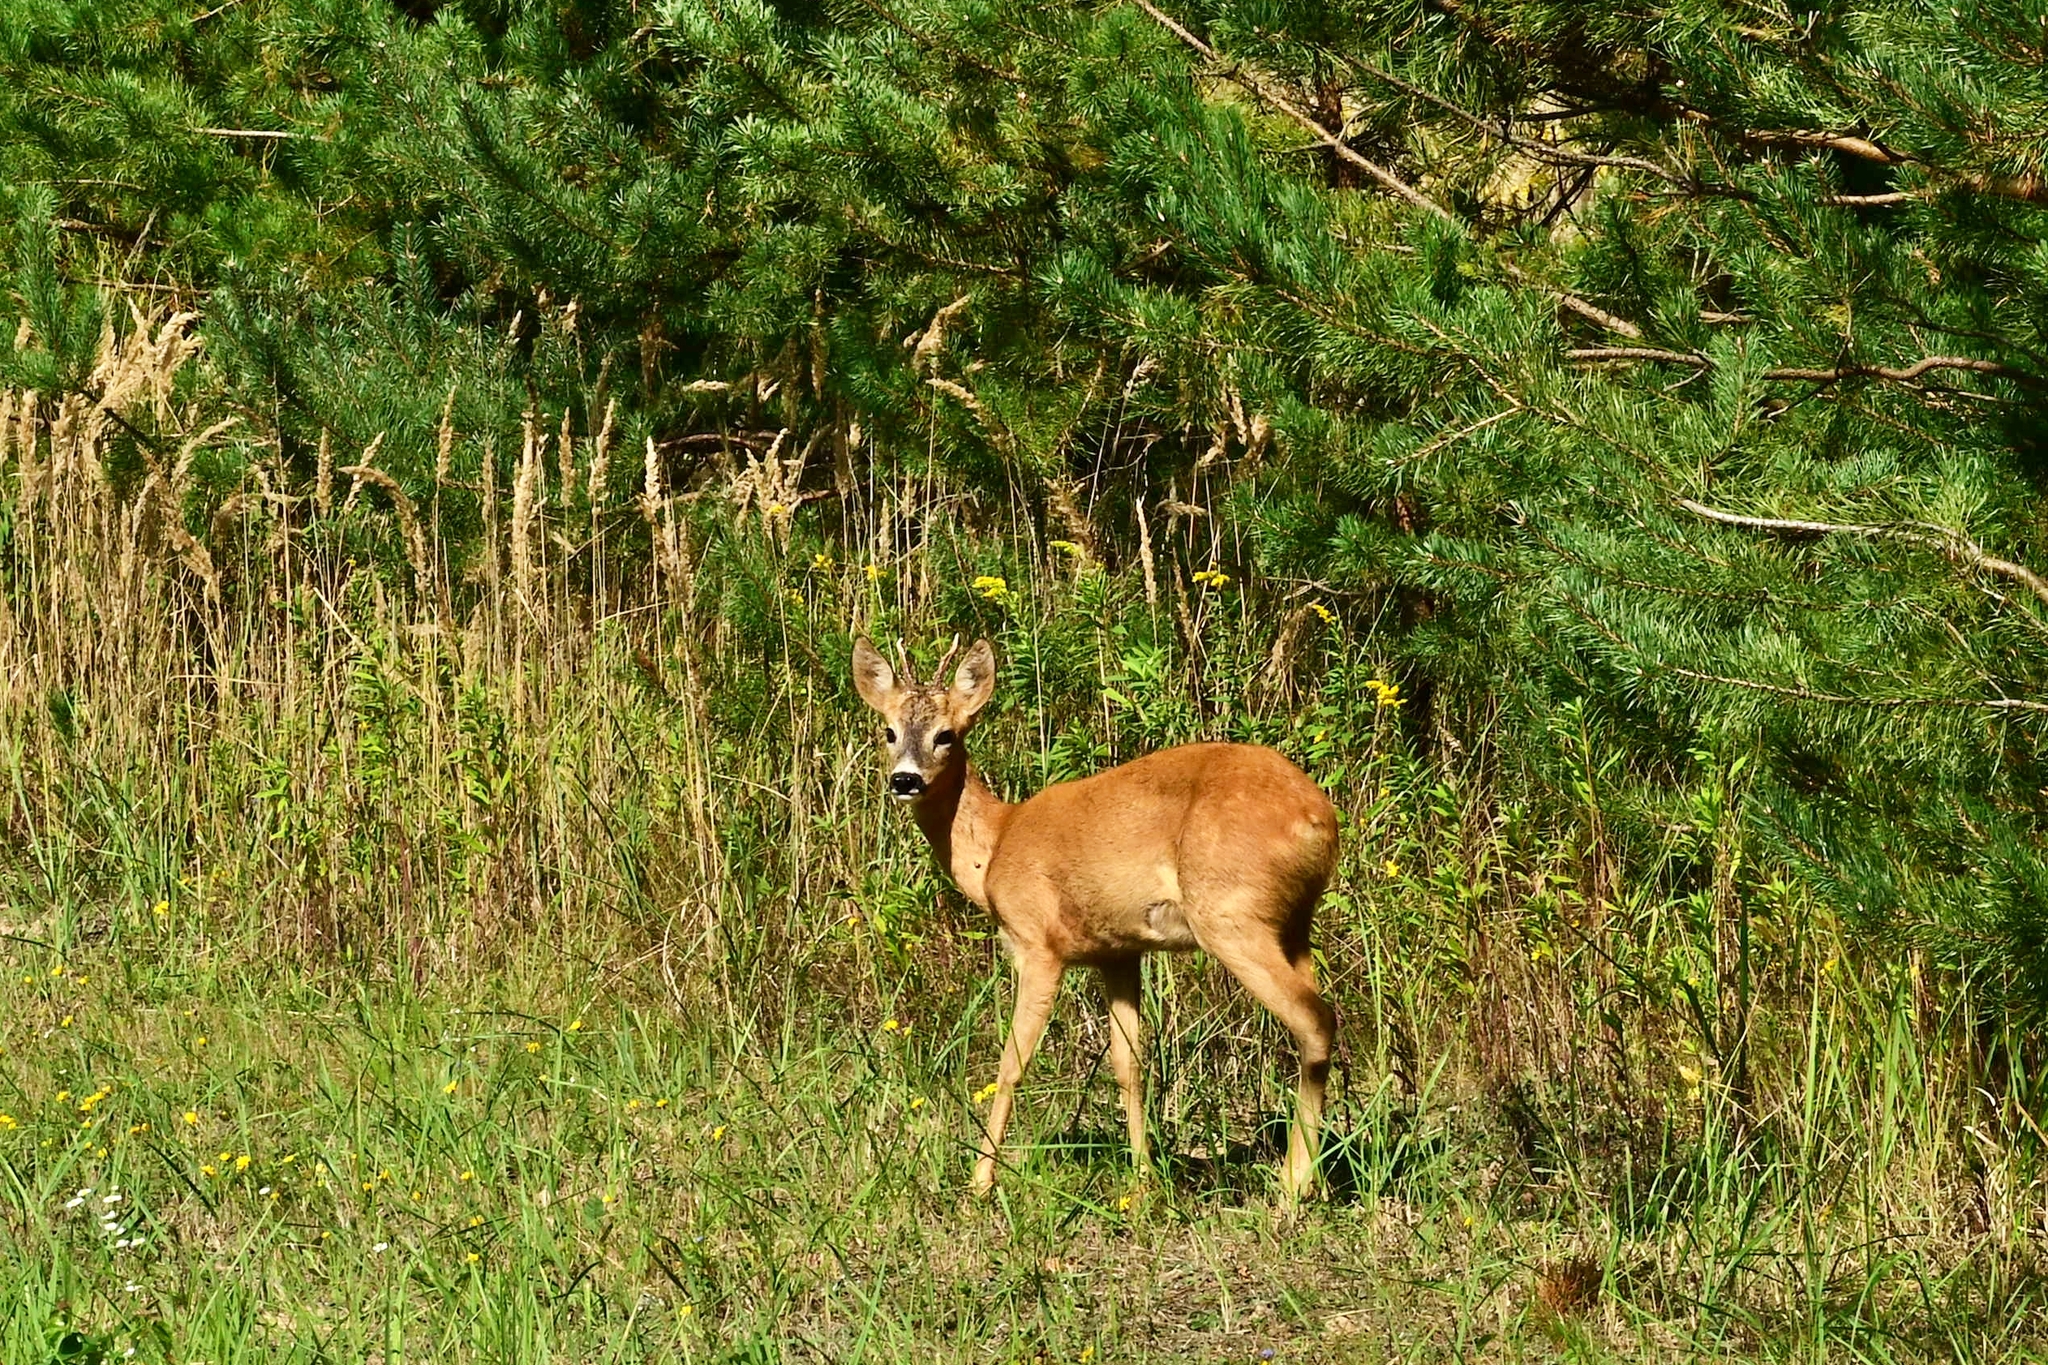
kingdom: Animalia
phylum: Chordata
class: Mammalia
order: Artiodactyla
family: Cervidae
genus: Capreolus
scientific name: Capreolus capreolus
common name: Western roe deer
